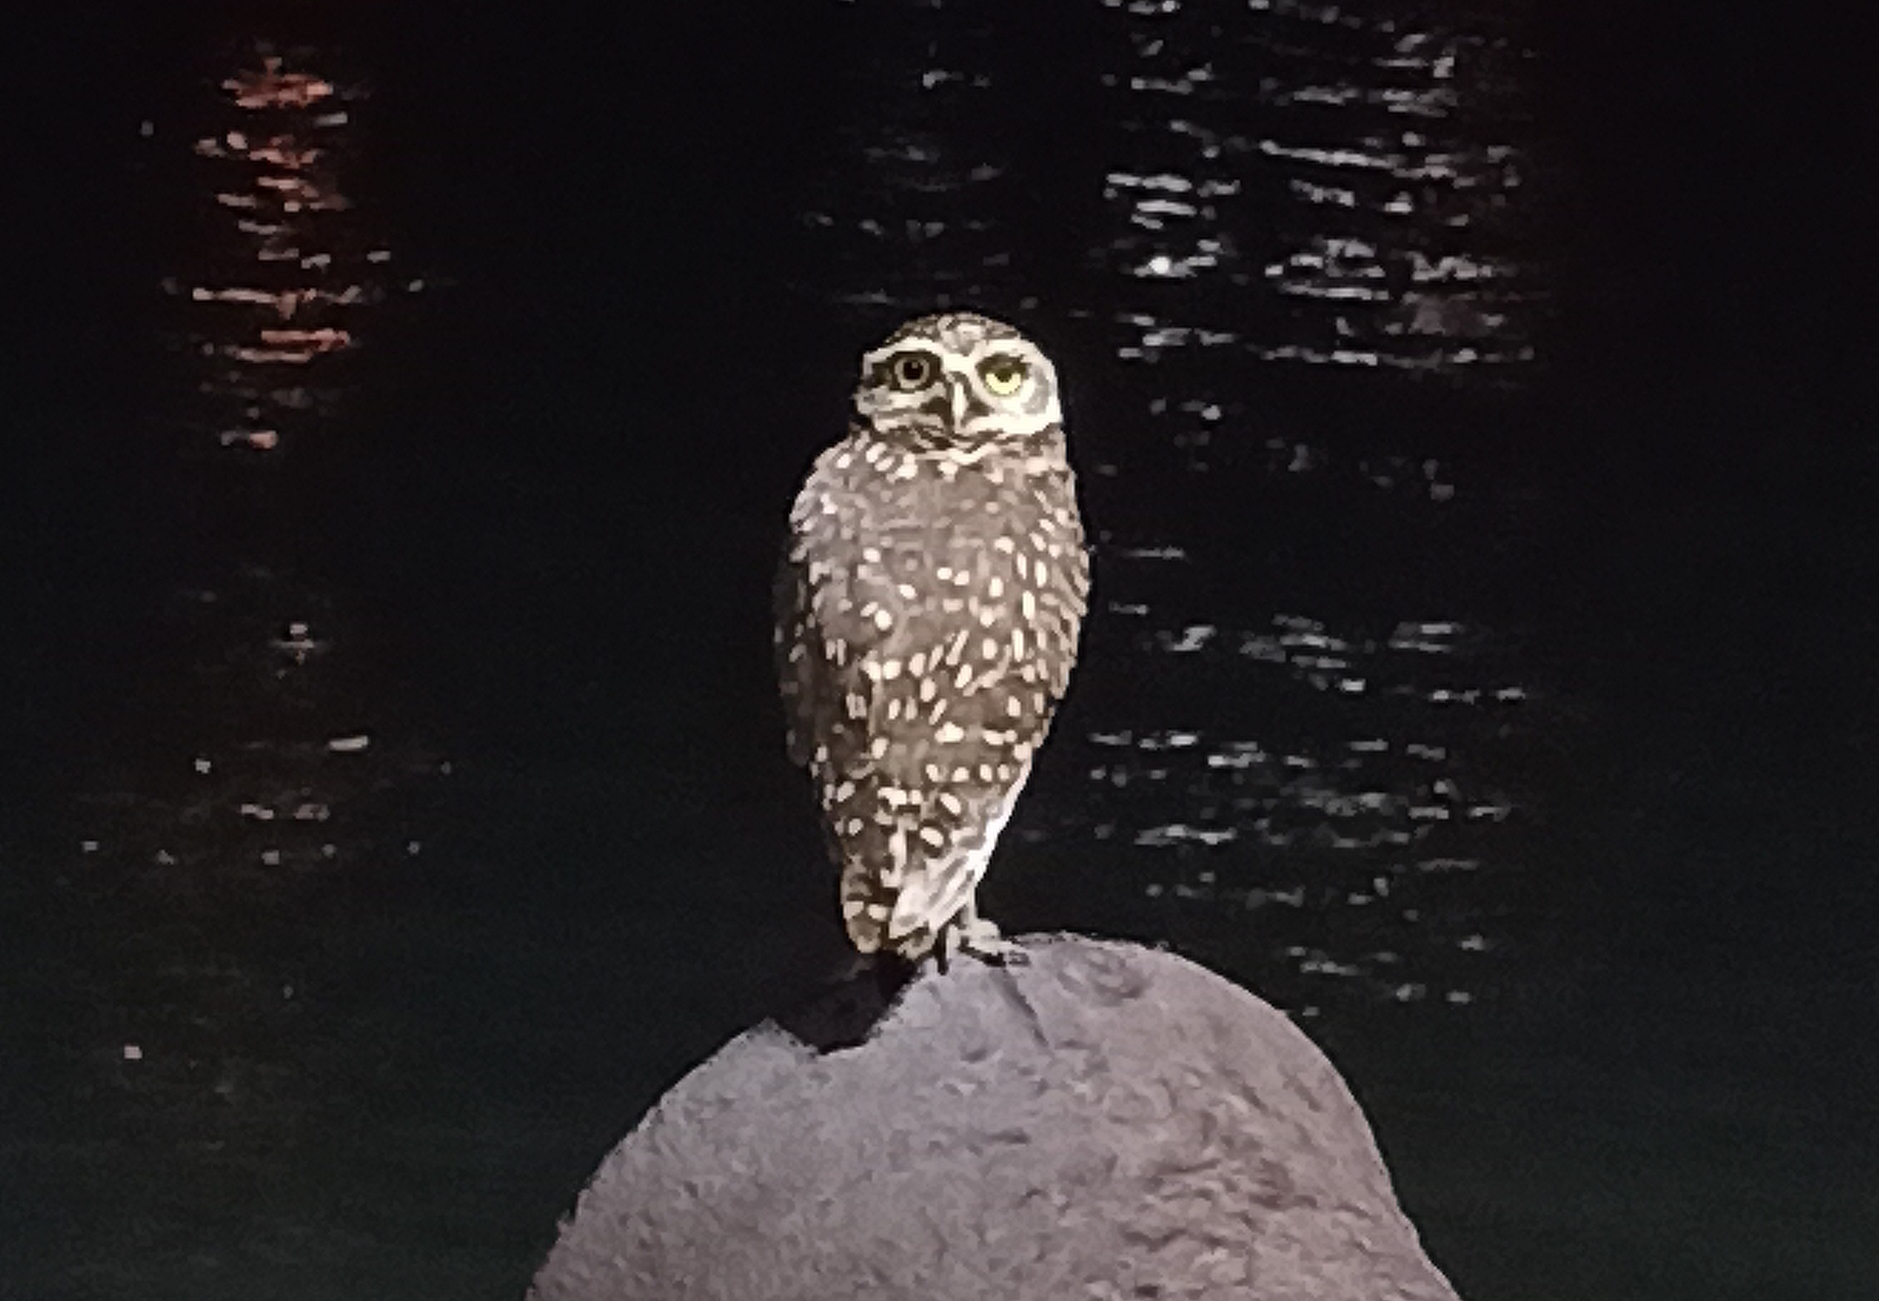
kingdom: Animalia
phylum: Chordata
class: Aves
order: Strigiformes
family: Strigidae
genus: Athene
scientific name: Athene cunicularia
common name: Burrowing owl
